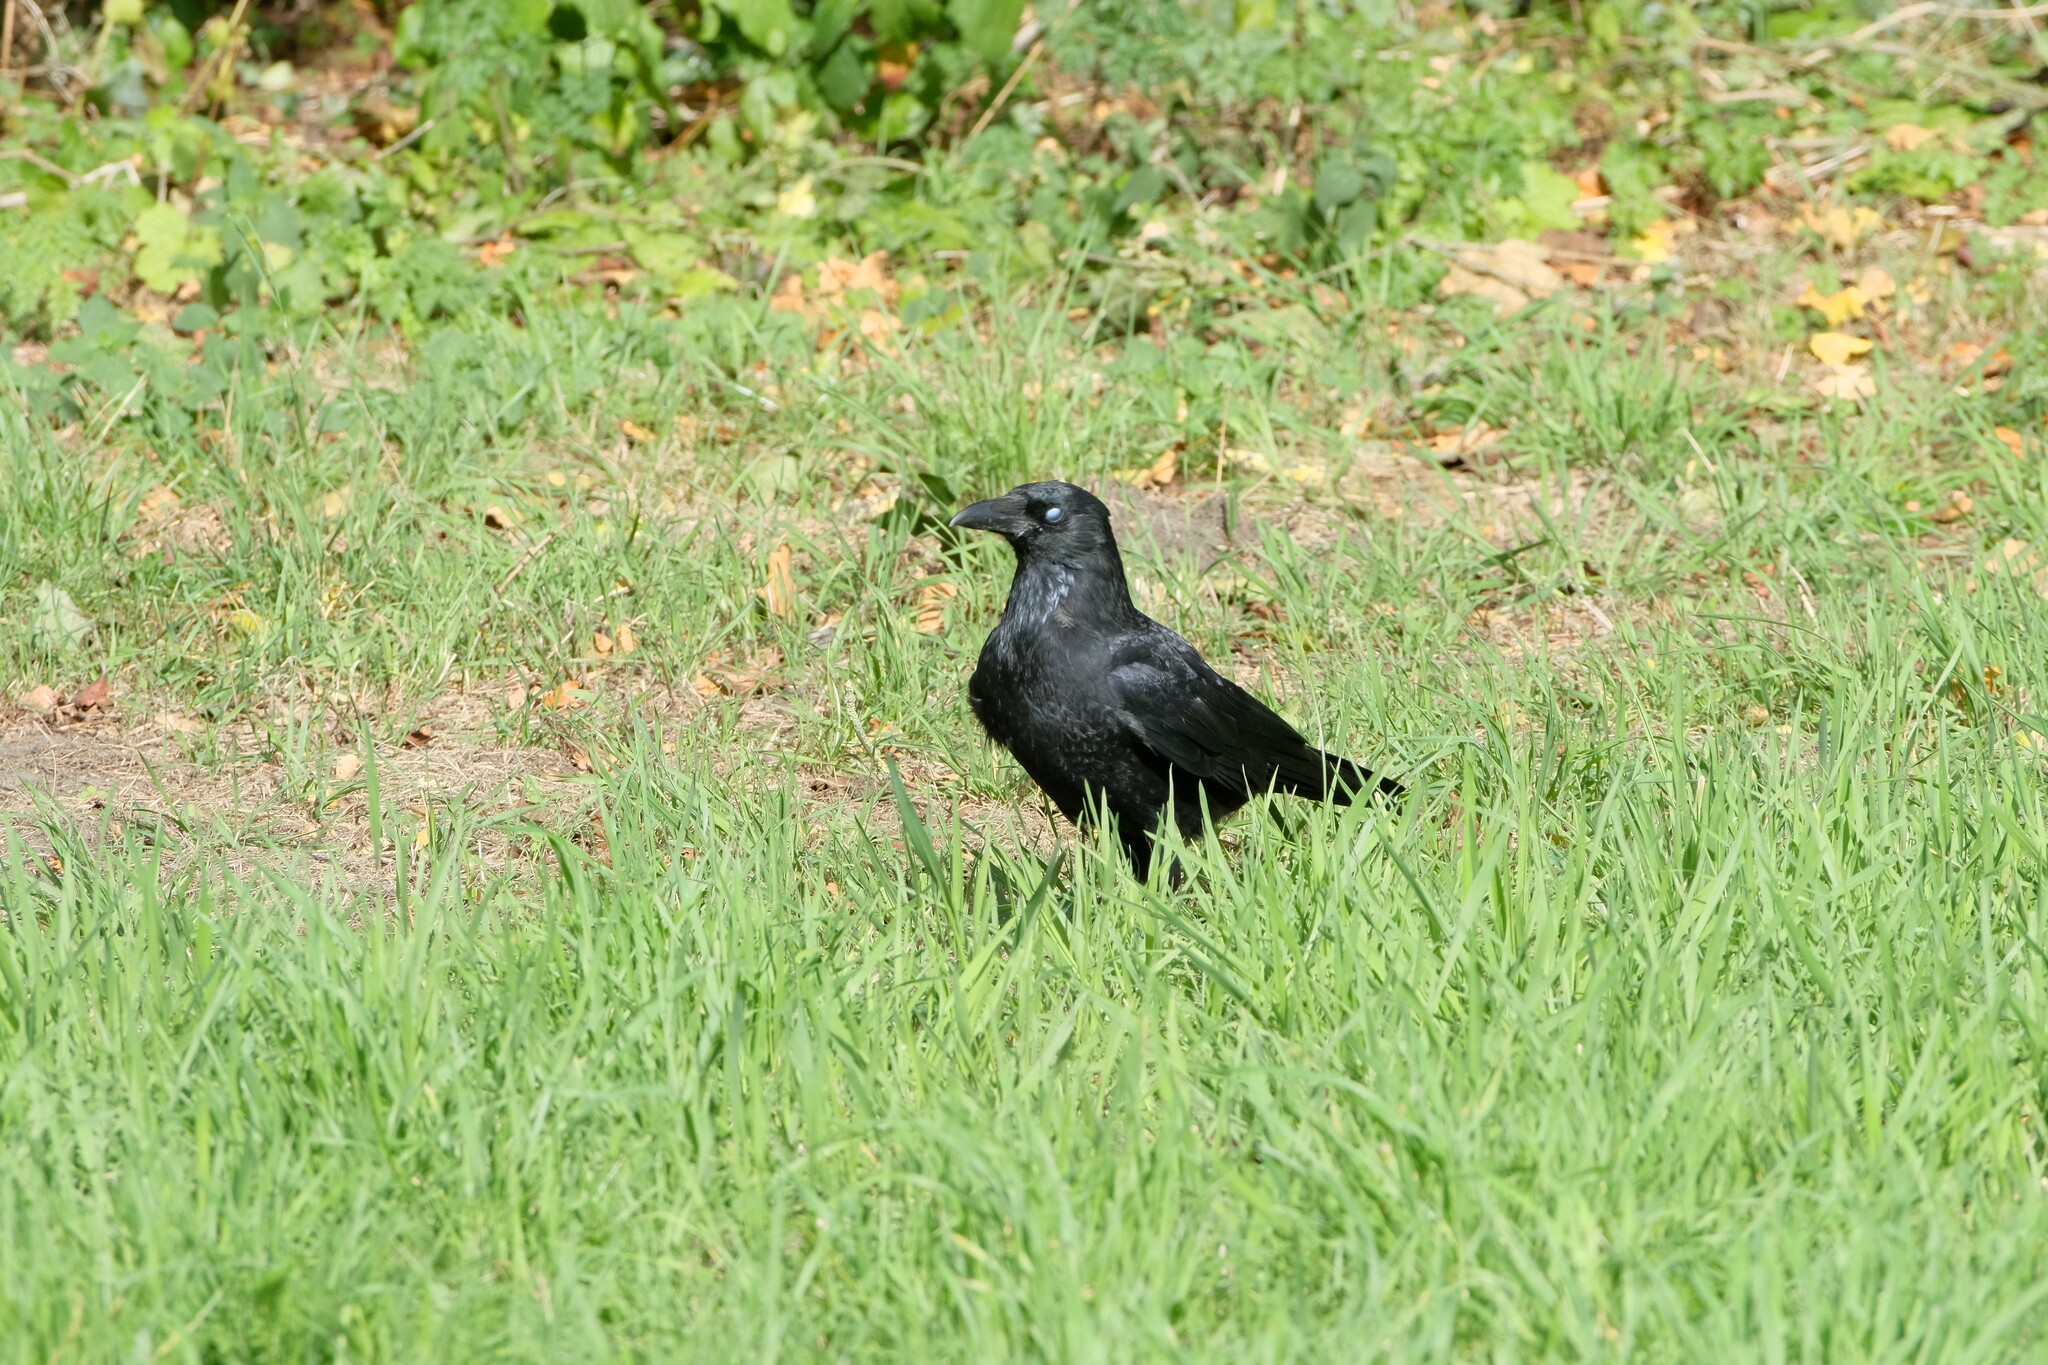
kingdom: Animalia
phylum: Chordata
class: Aves
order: Passeriformes
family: Corvidae
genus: Corvus
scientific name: Corvus corone
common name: Carrion crow
